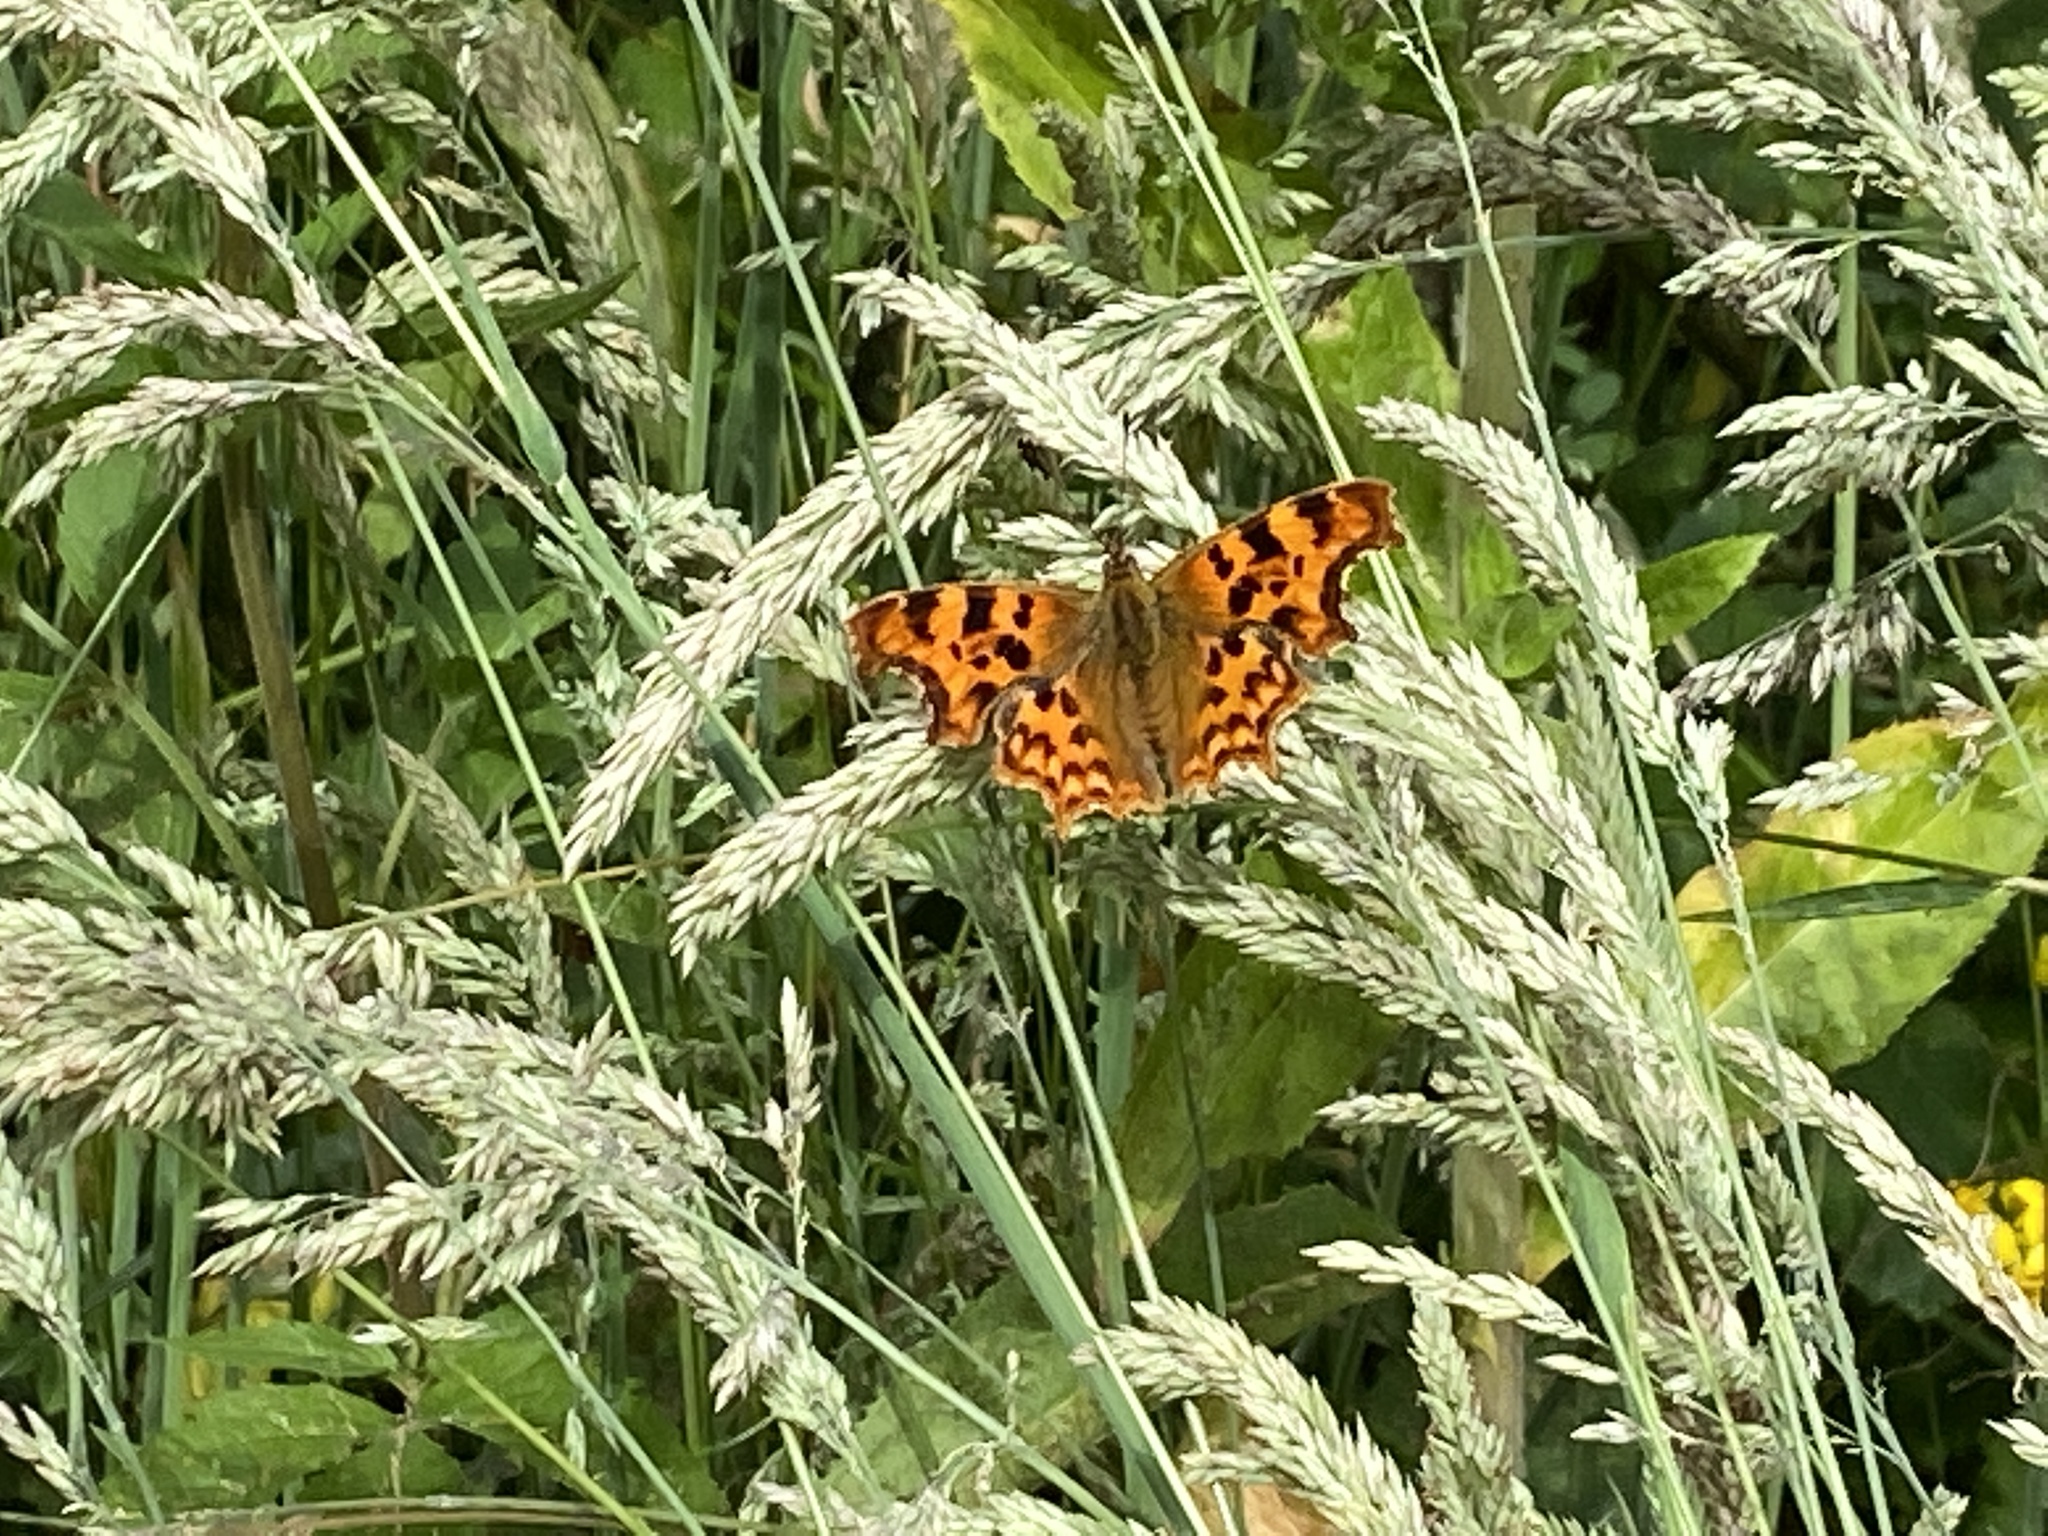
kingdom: Animalia
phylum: Arthropoda
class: Insecta
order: Lepidoptera
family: Nymphalidae
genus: Polygonia
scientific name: Polygonia c-album
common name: Comma
